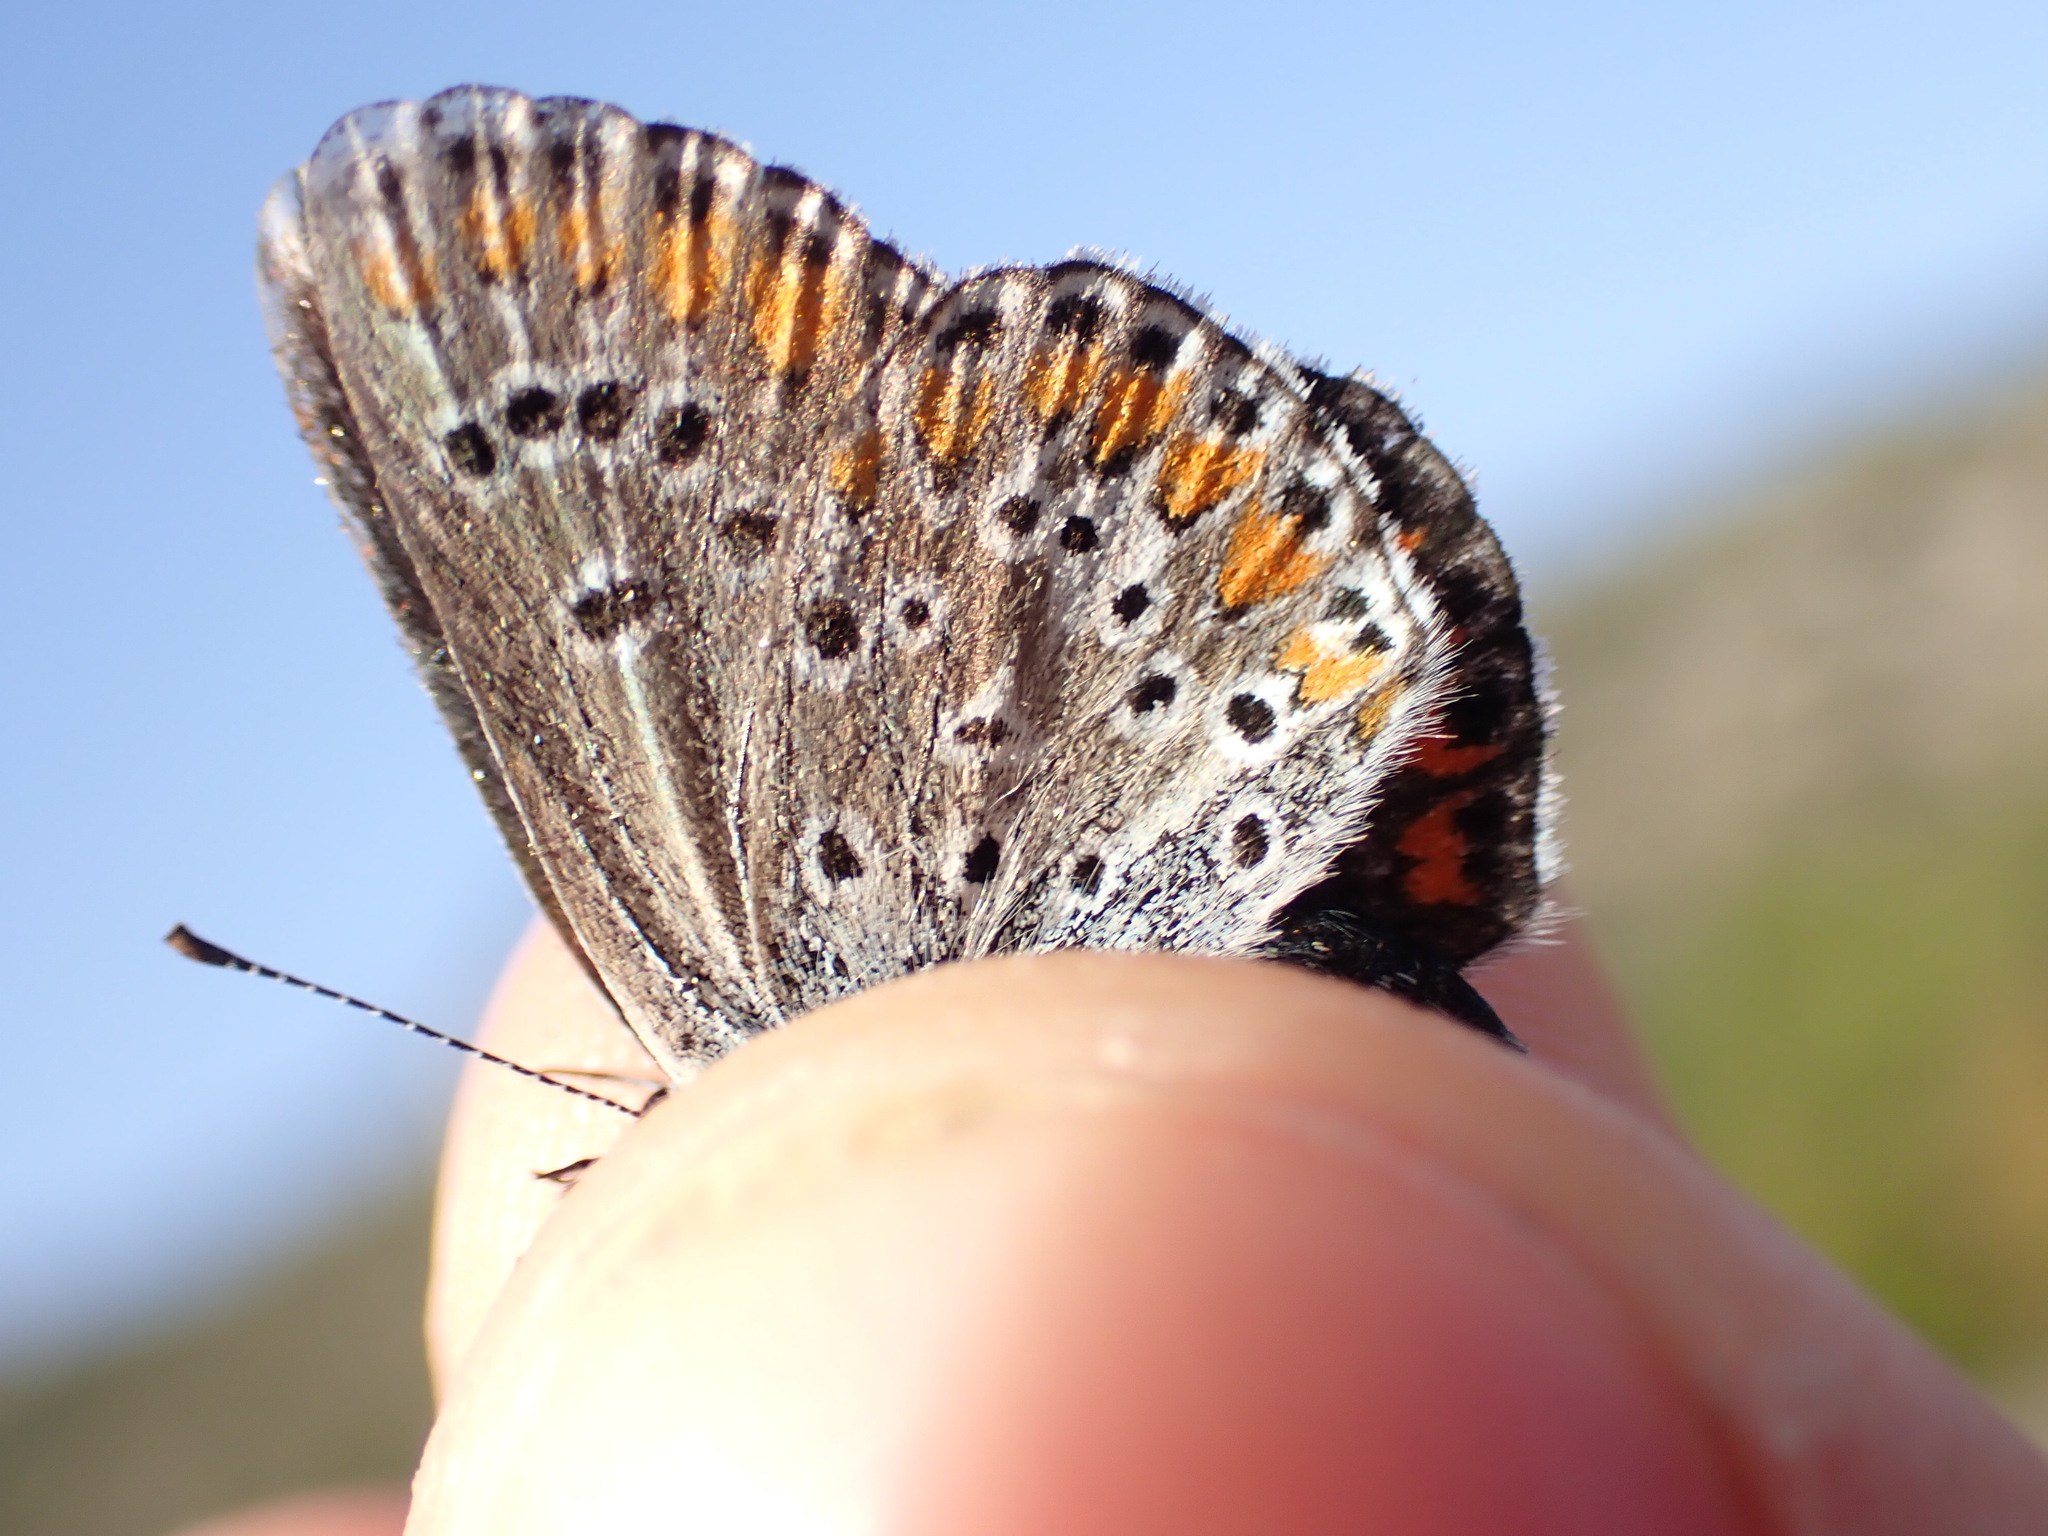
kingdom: Animalia
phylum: Arthropoda
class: Insecta
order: Lepidoptera
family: Lycaenidae
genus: Aricia
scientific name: Aricia agestis
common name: Brown argus
